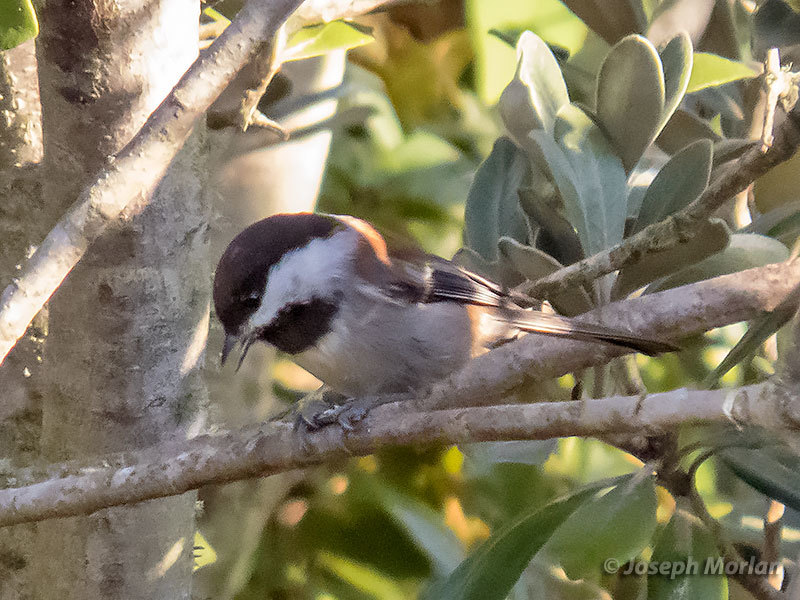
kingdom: Animalia
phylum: Chordata
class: Aves
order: Passeriformes
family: Paridae
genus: Poecile
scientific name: Poecile rufescens
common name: Chestnut-backed chickadee
